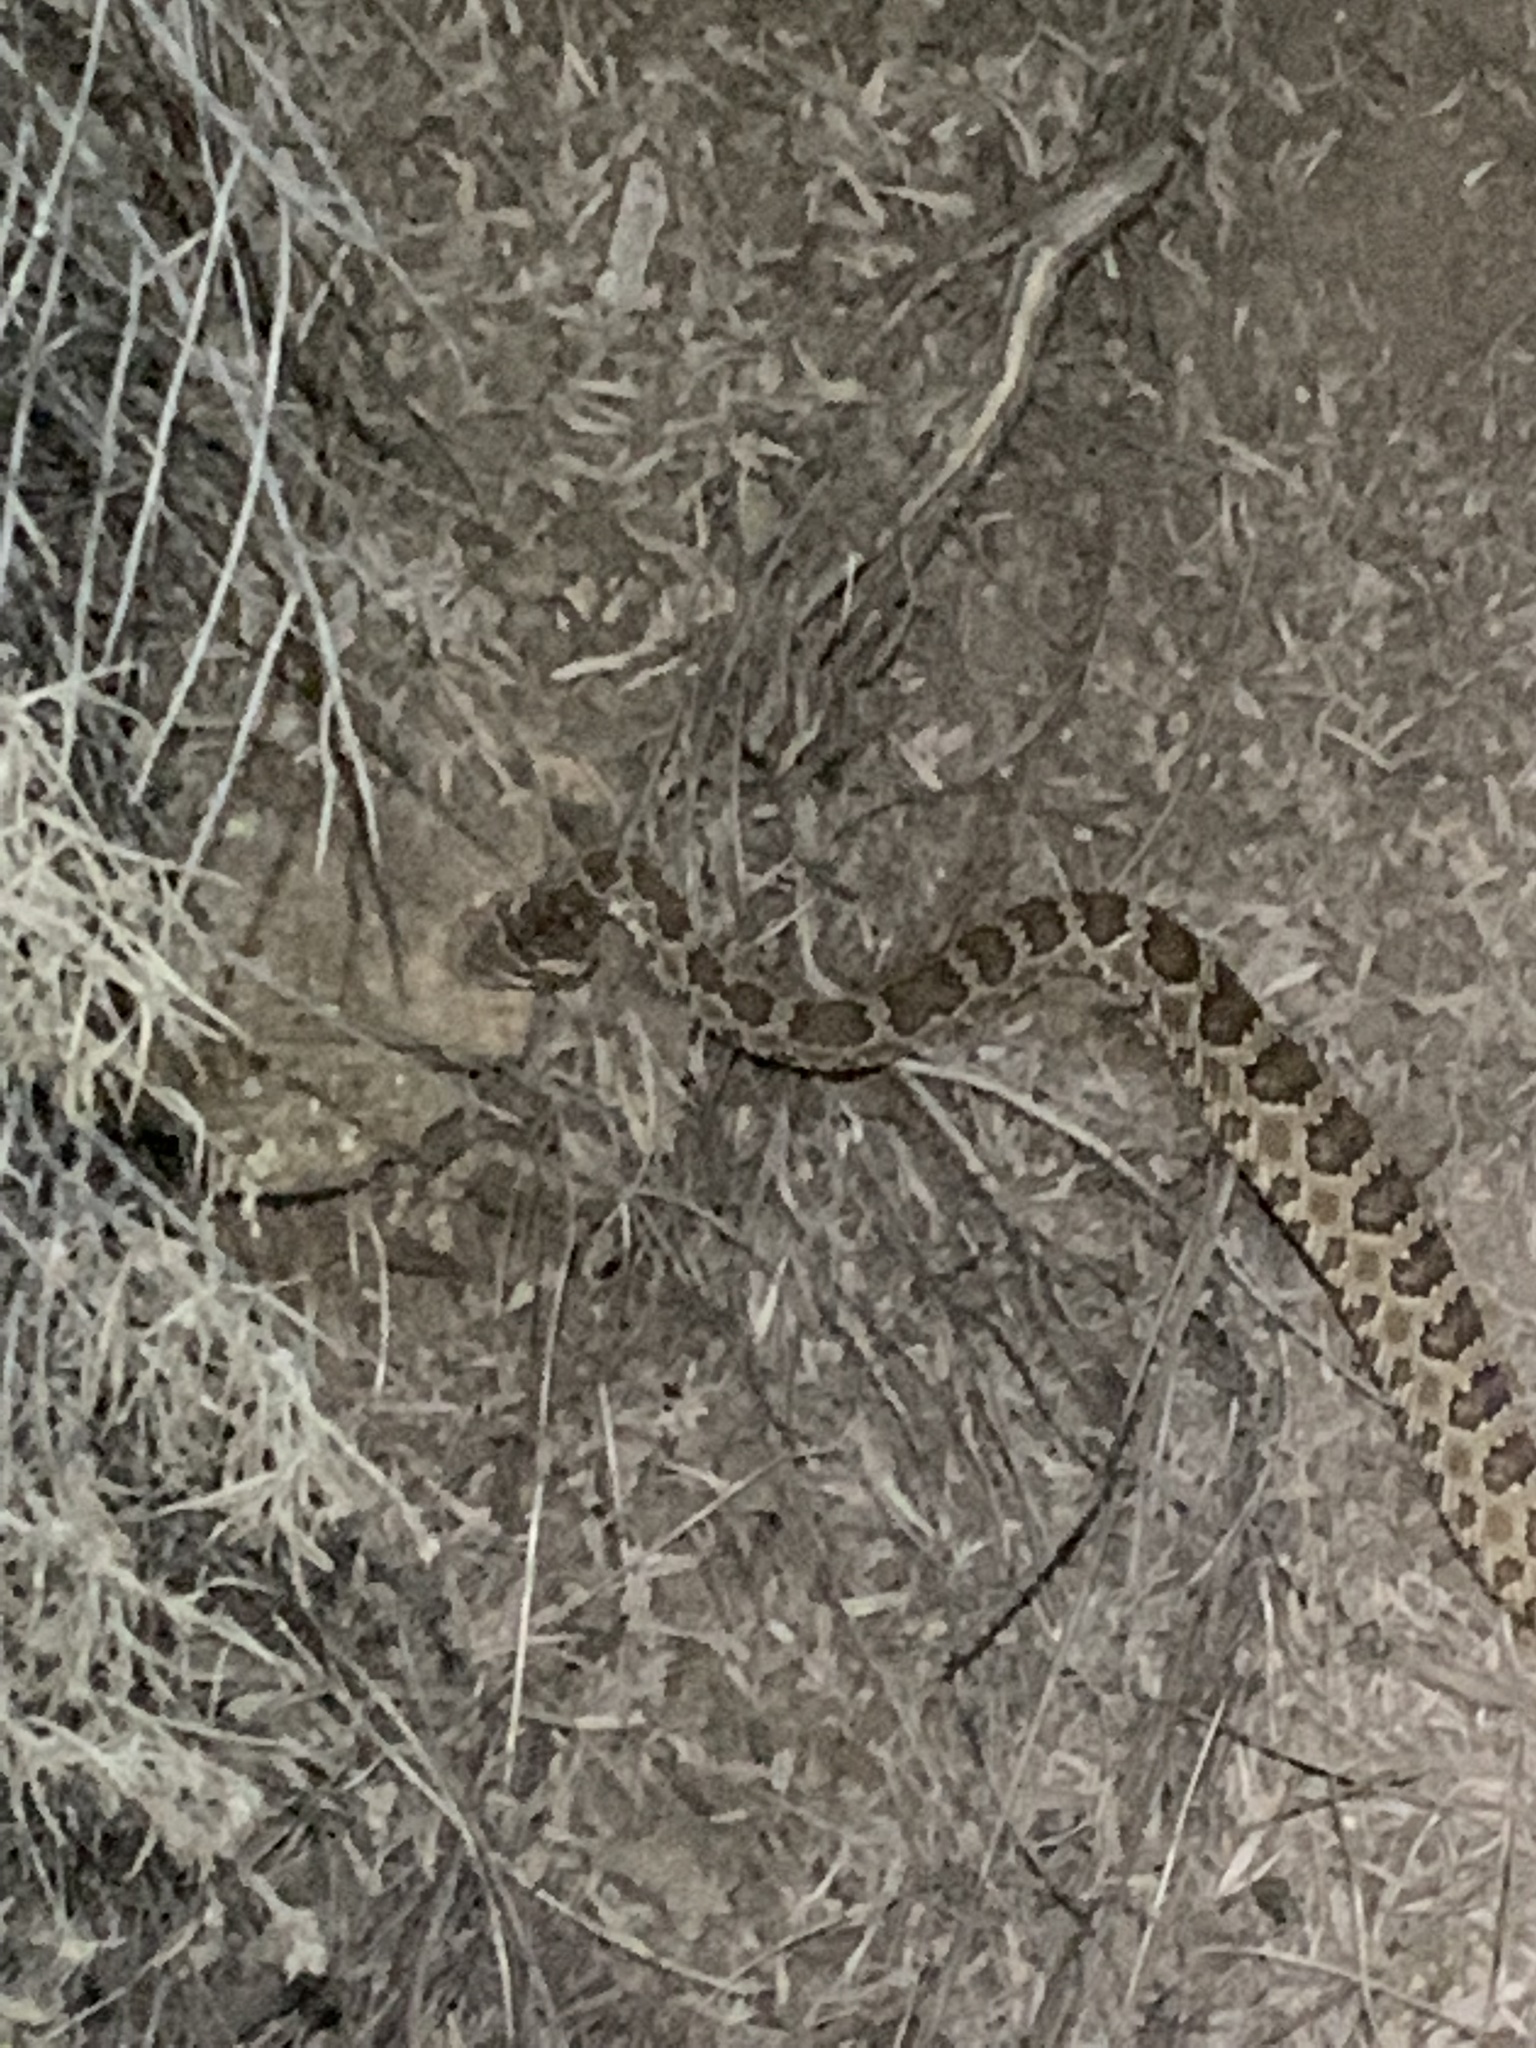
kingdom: Animalia
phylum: Chordata
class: Squamata
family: Viperidae
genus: Crotalus
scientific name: Crotalus oreganus
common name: Abyssus
